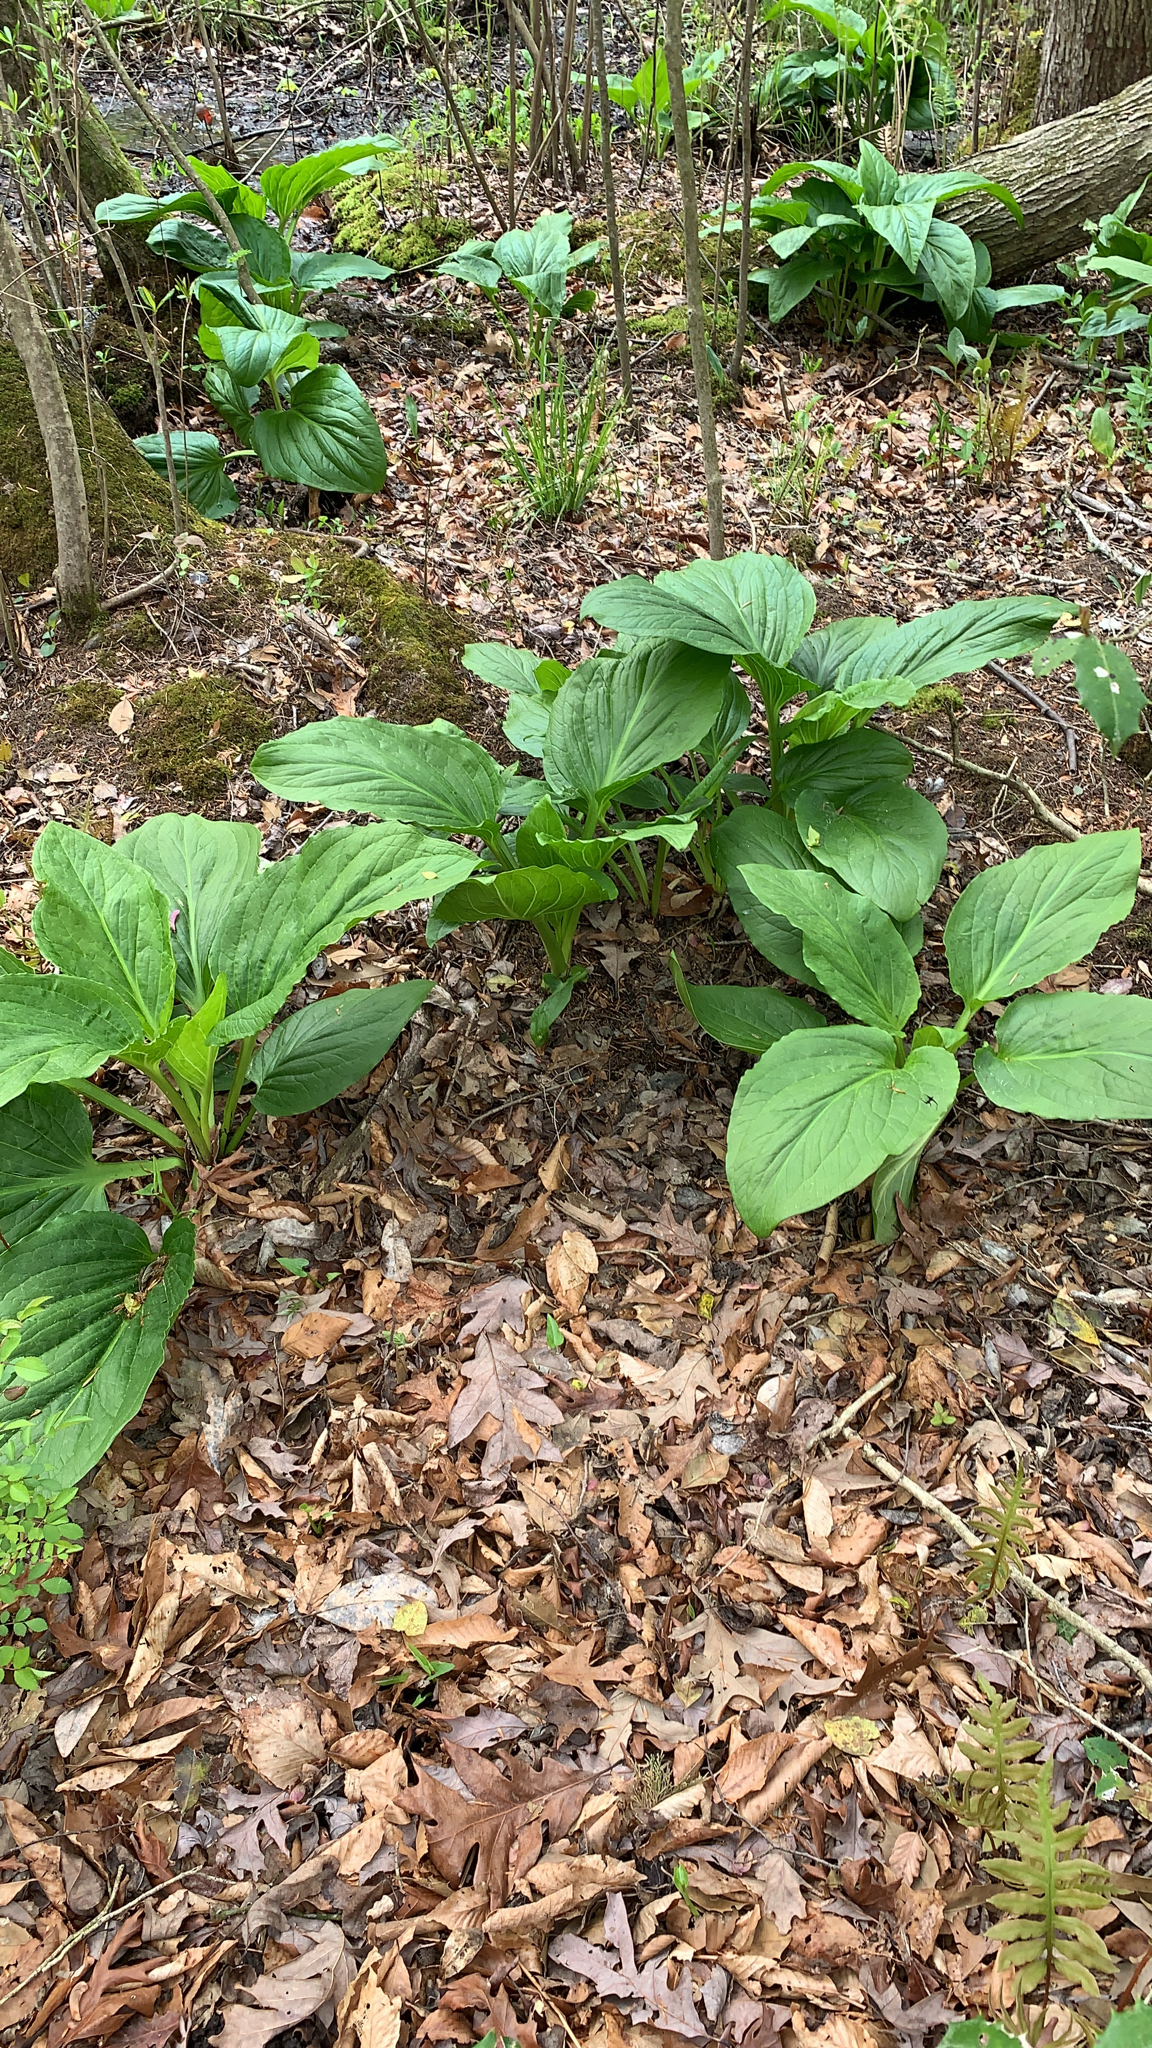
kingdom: Plantae
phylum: Tracheophyta
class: Liliopsida
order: Alismatales
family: Araceae
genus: Symplocarpus
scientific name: Symplocarpus foetidus
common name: Eastern skunk cabbage
